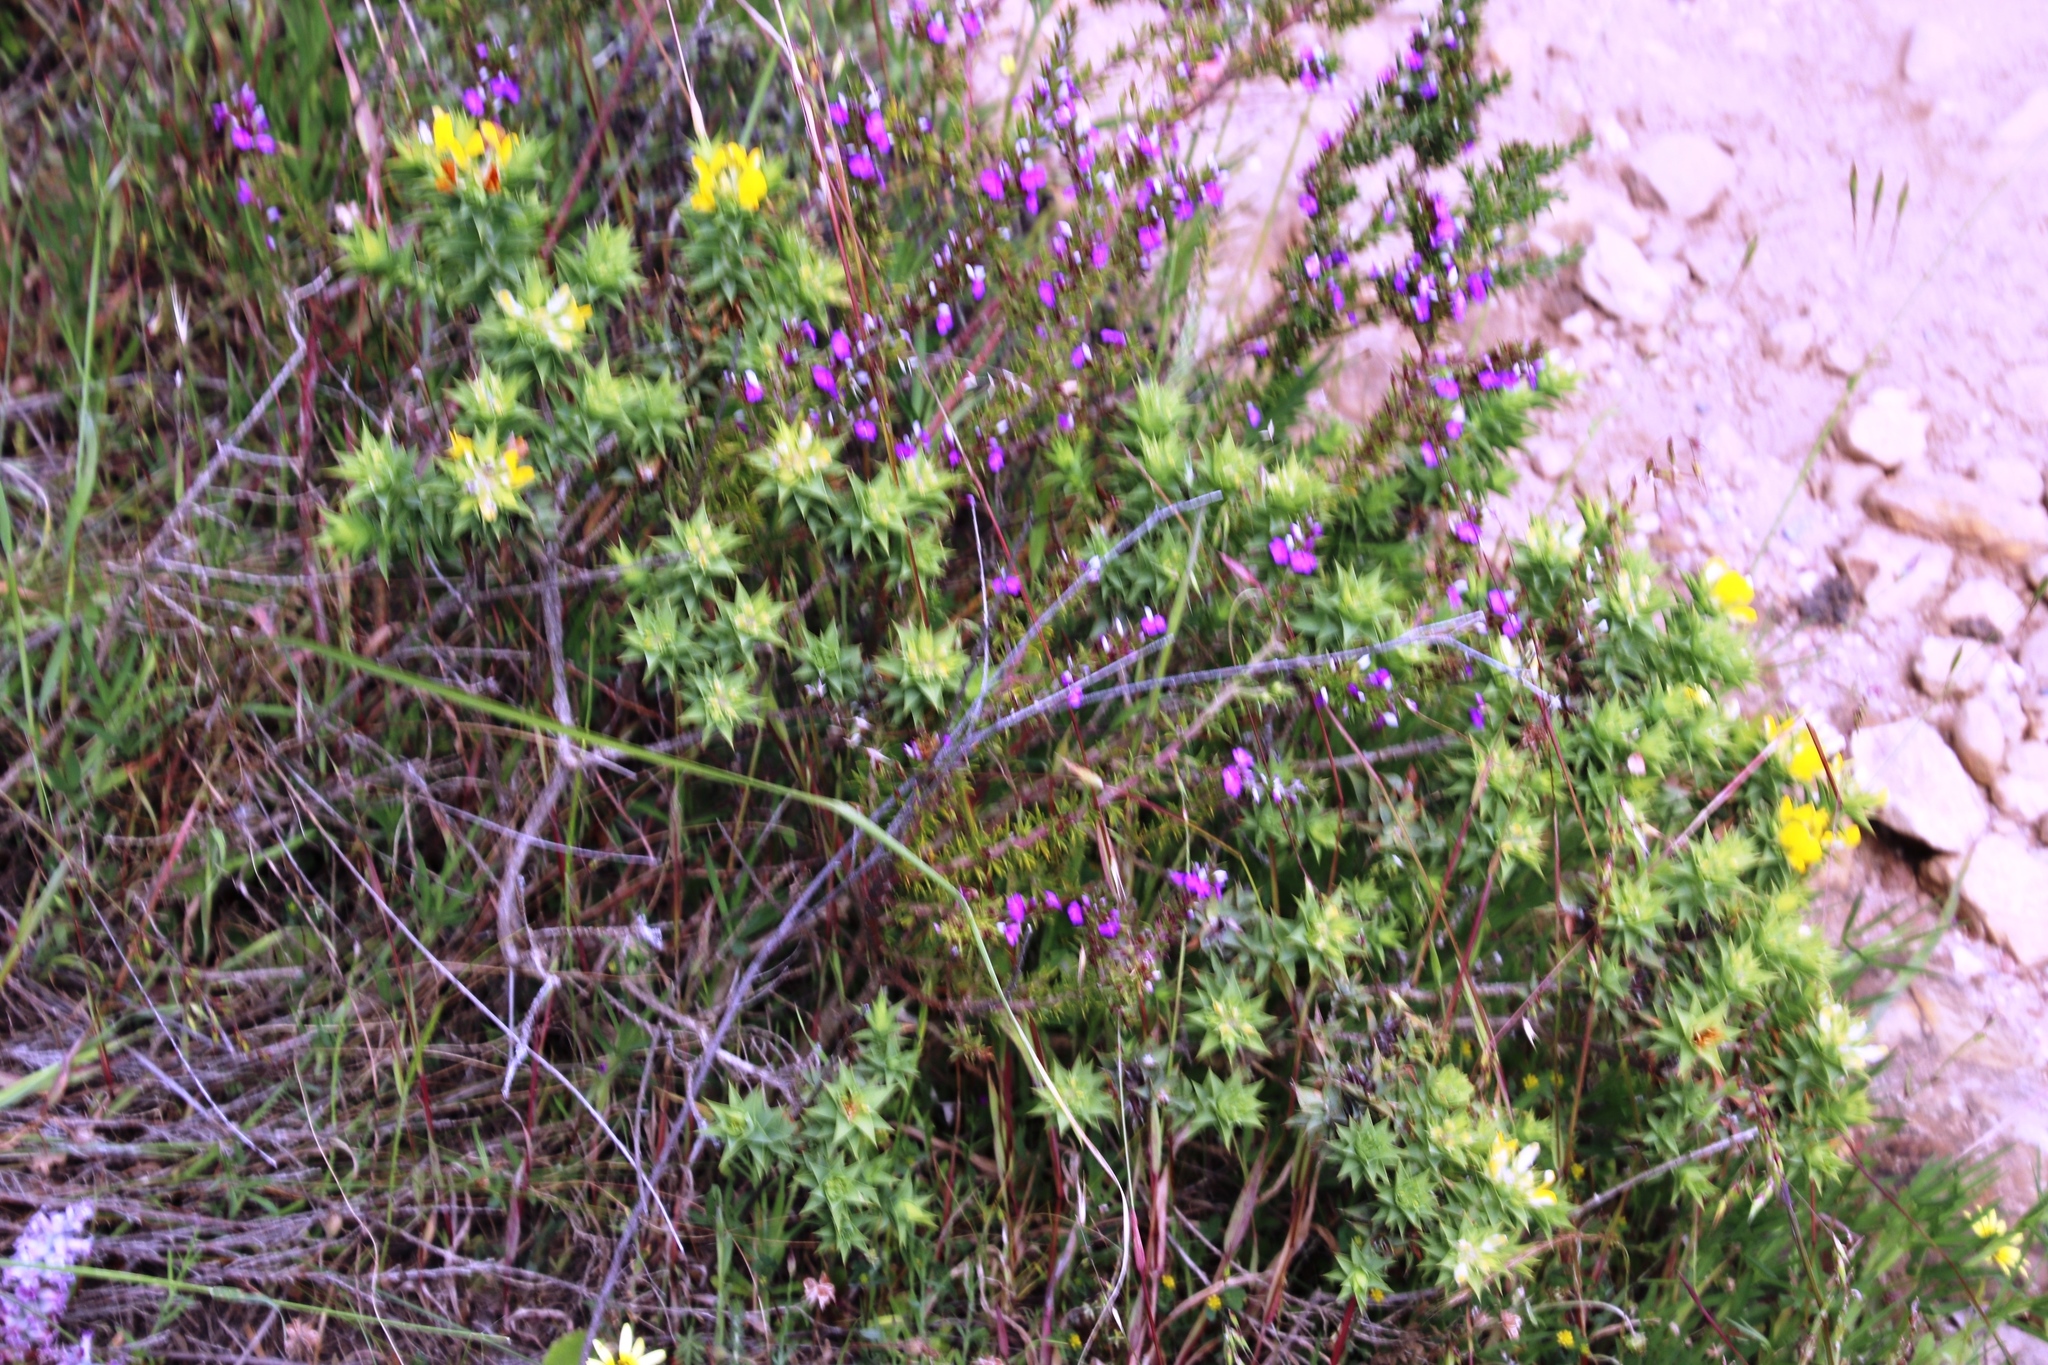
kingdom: Plantae
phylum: Tracheophyta
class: Magnoliopsida
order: Fabales
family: Fabaceae
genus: Aspalathus
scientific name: Aspalathus cordata
